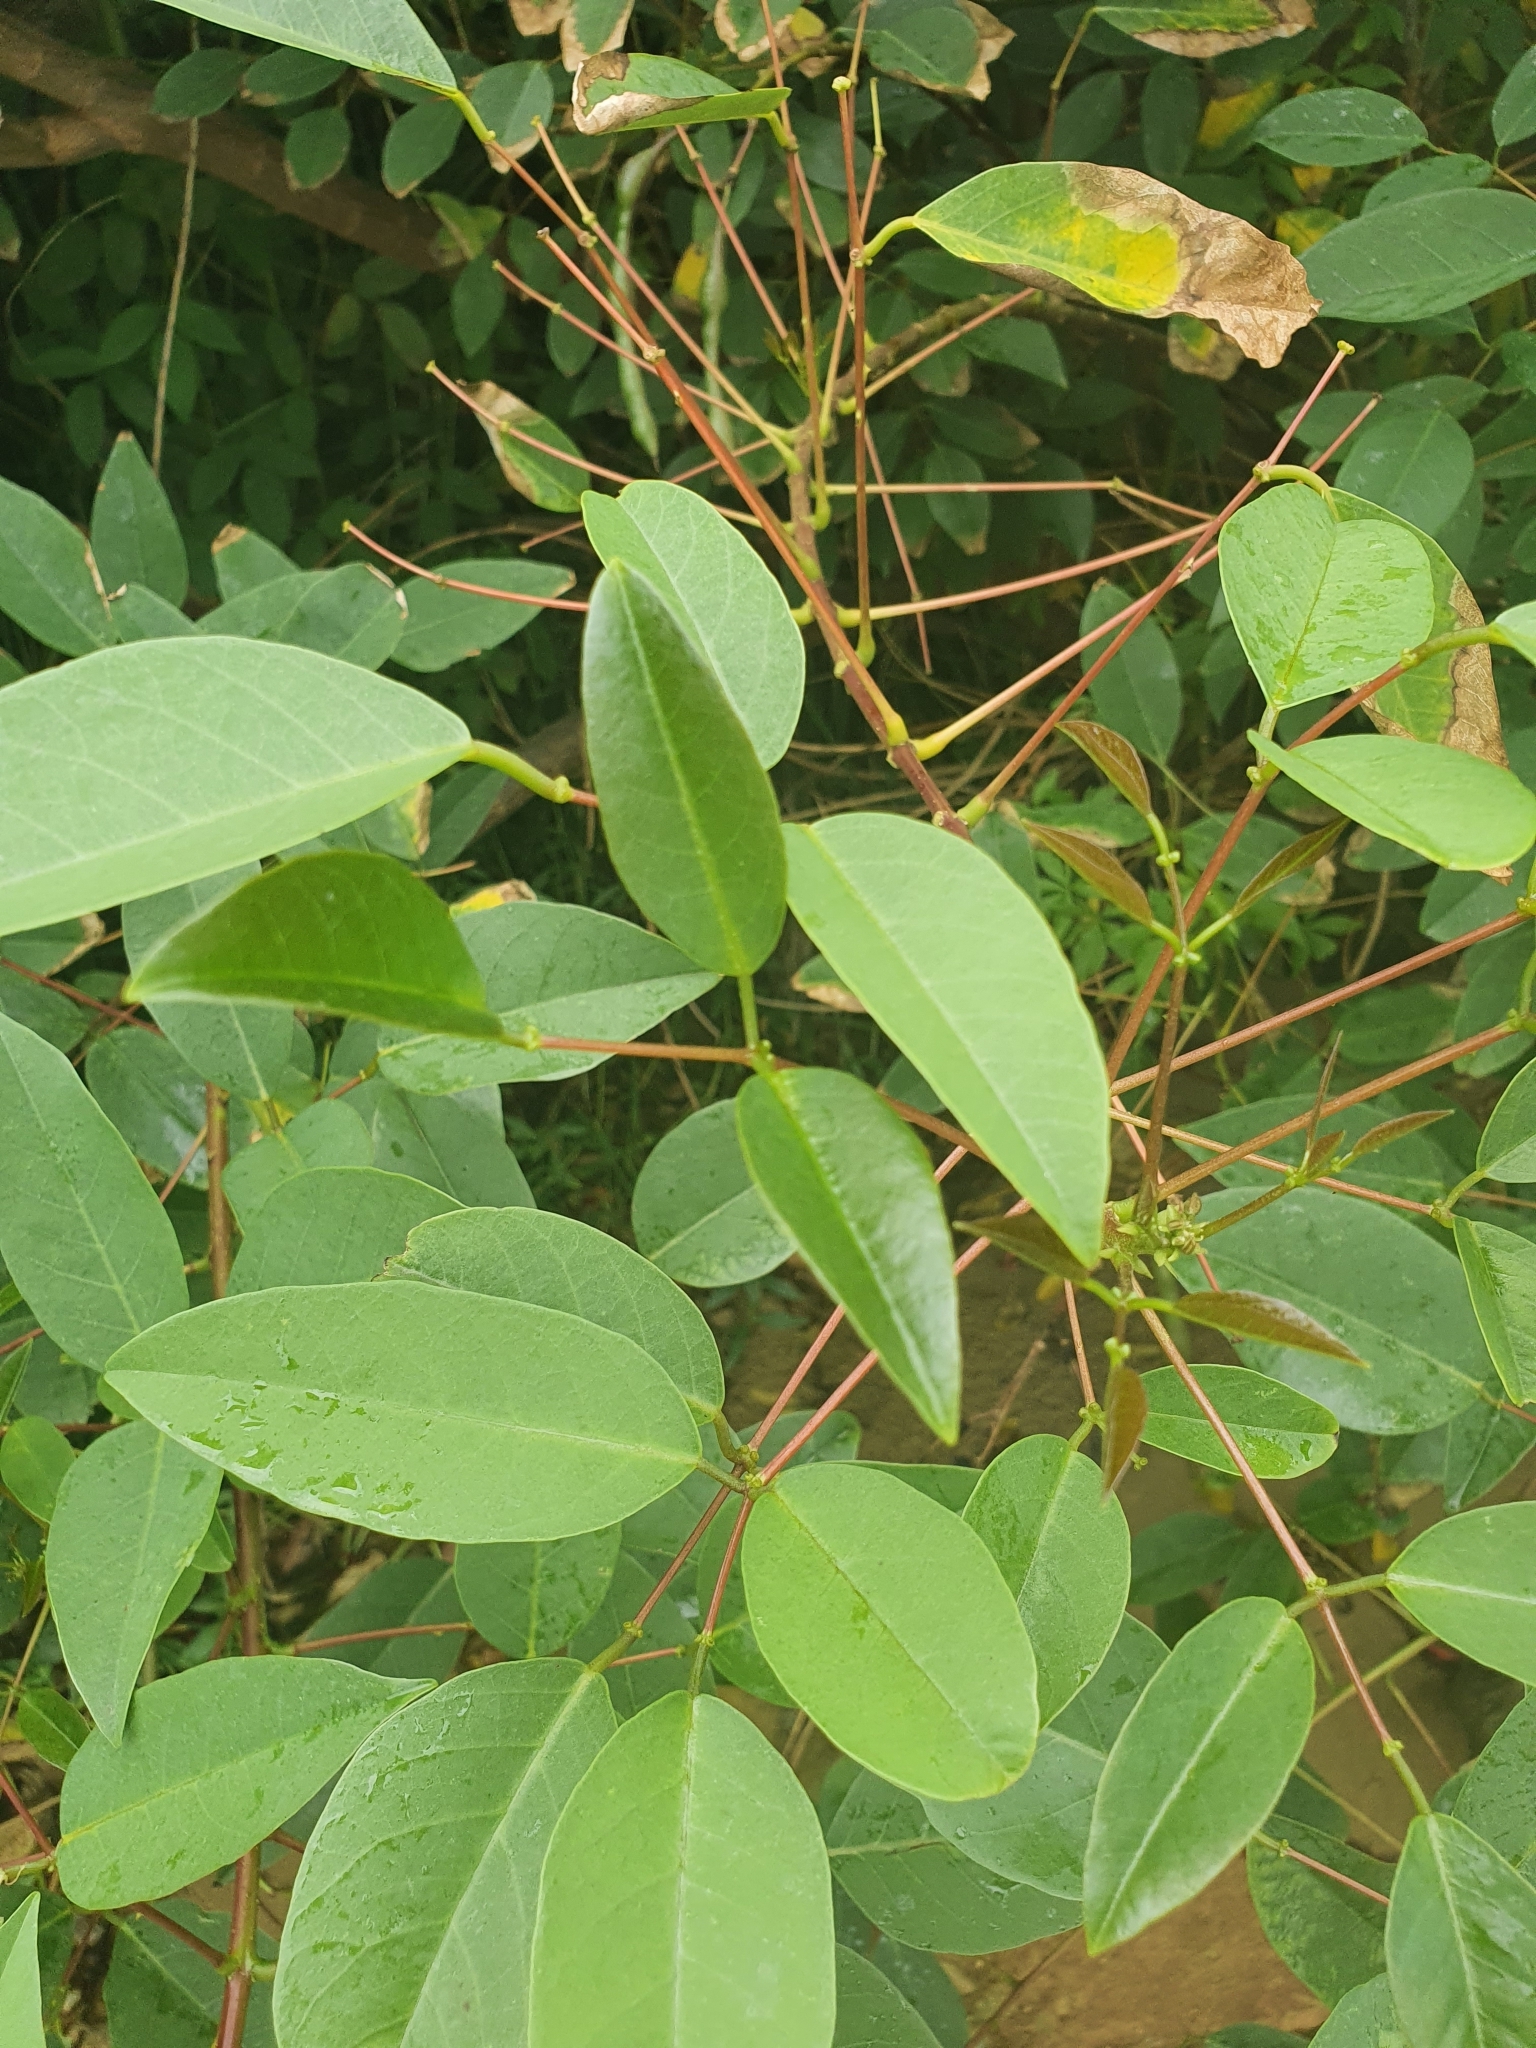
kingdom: Plantae
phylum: Tracheophyta
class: Magnoliopsida
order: Fabales
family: Fabaceae
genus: Erythrina
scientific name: Erythrina crista-galli
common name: Cockspur coral tree
